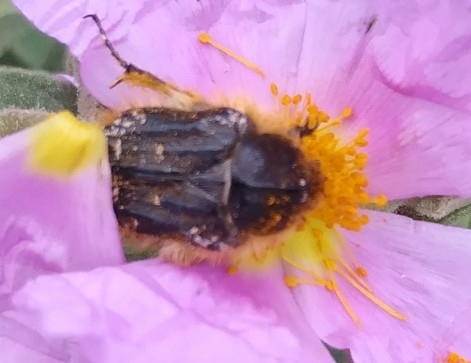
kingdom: Animalia
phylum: Arthropoda
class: Insecta
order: Coleoptera
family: Scarabaeidae
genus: Tropinota
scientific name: Tropinota squalida
